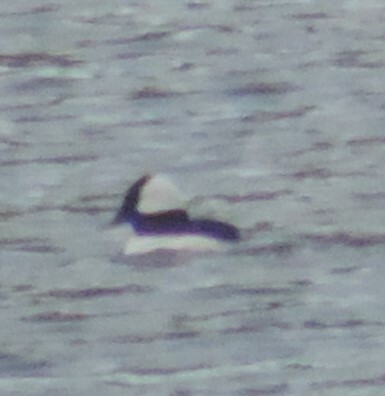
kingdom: Animalia
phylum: Chordata
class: Aves
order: Anseriformes
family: Anatidae
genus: Bucephala
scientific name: Bucephala albeola
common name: Bufflehead
